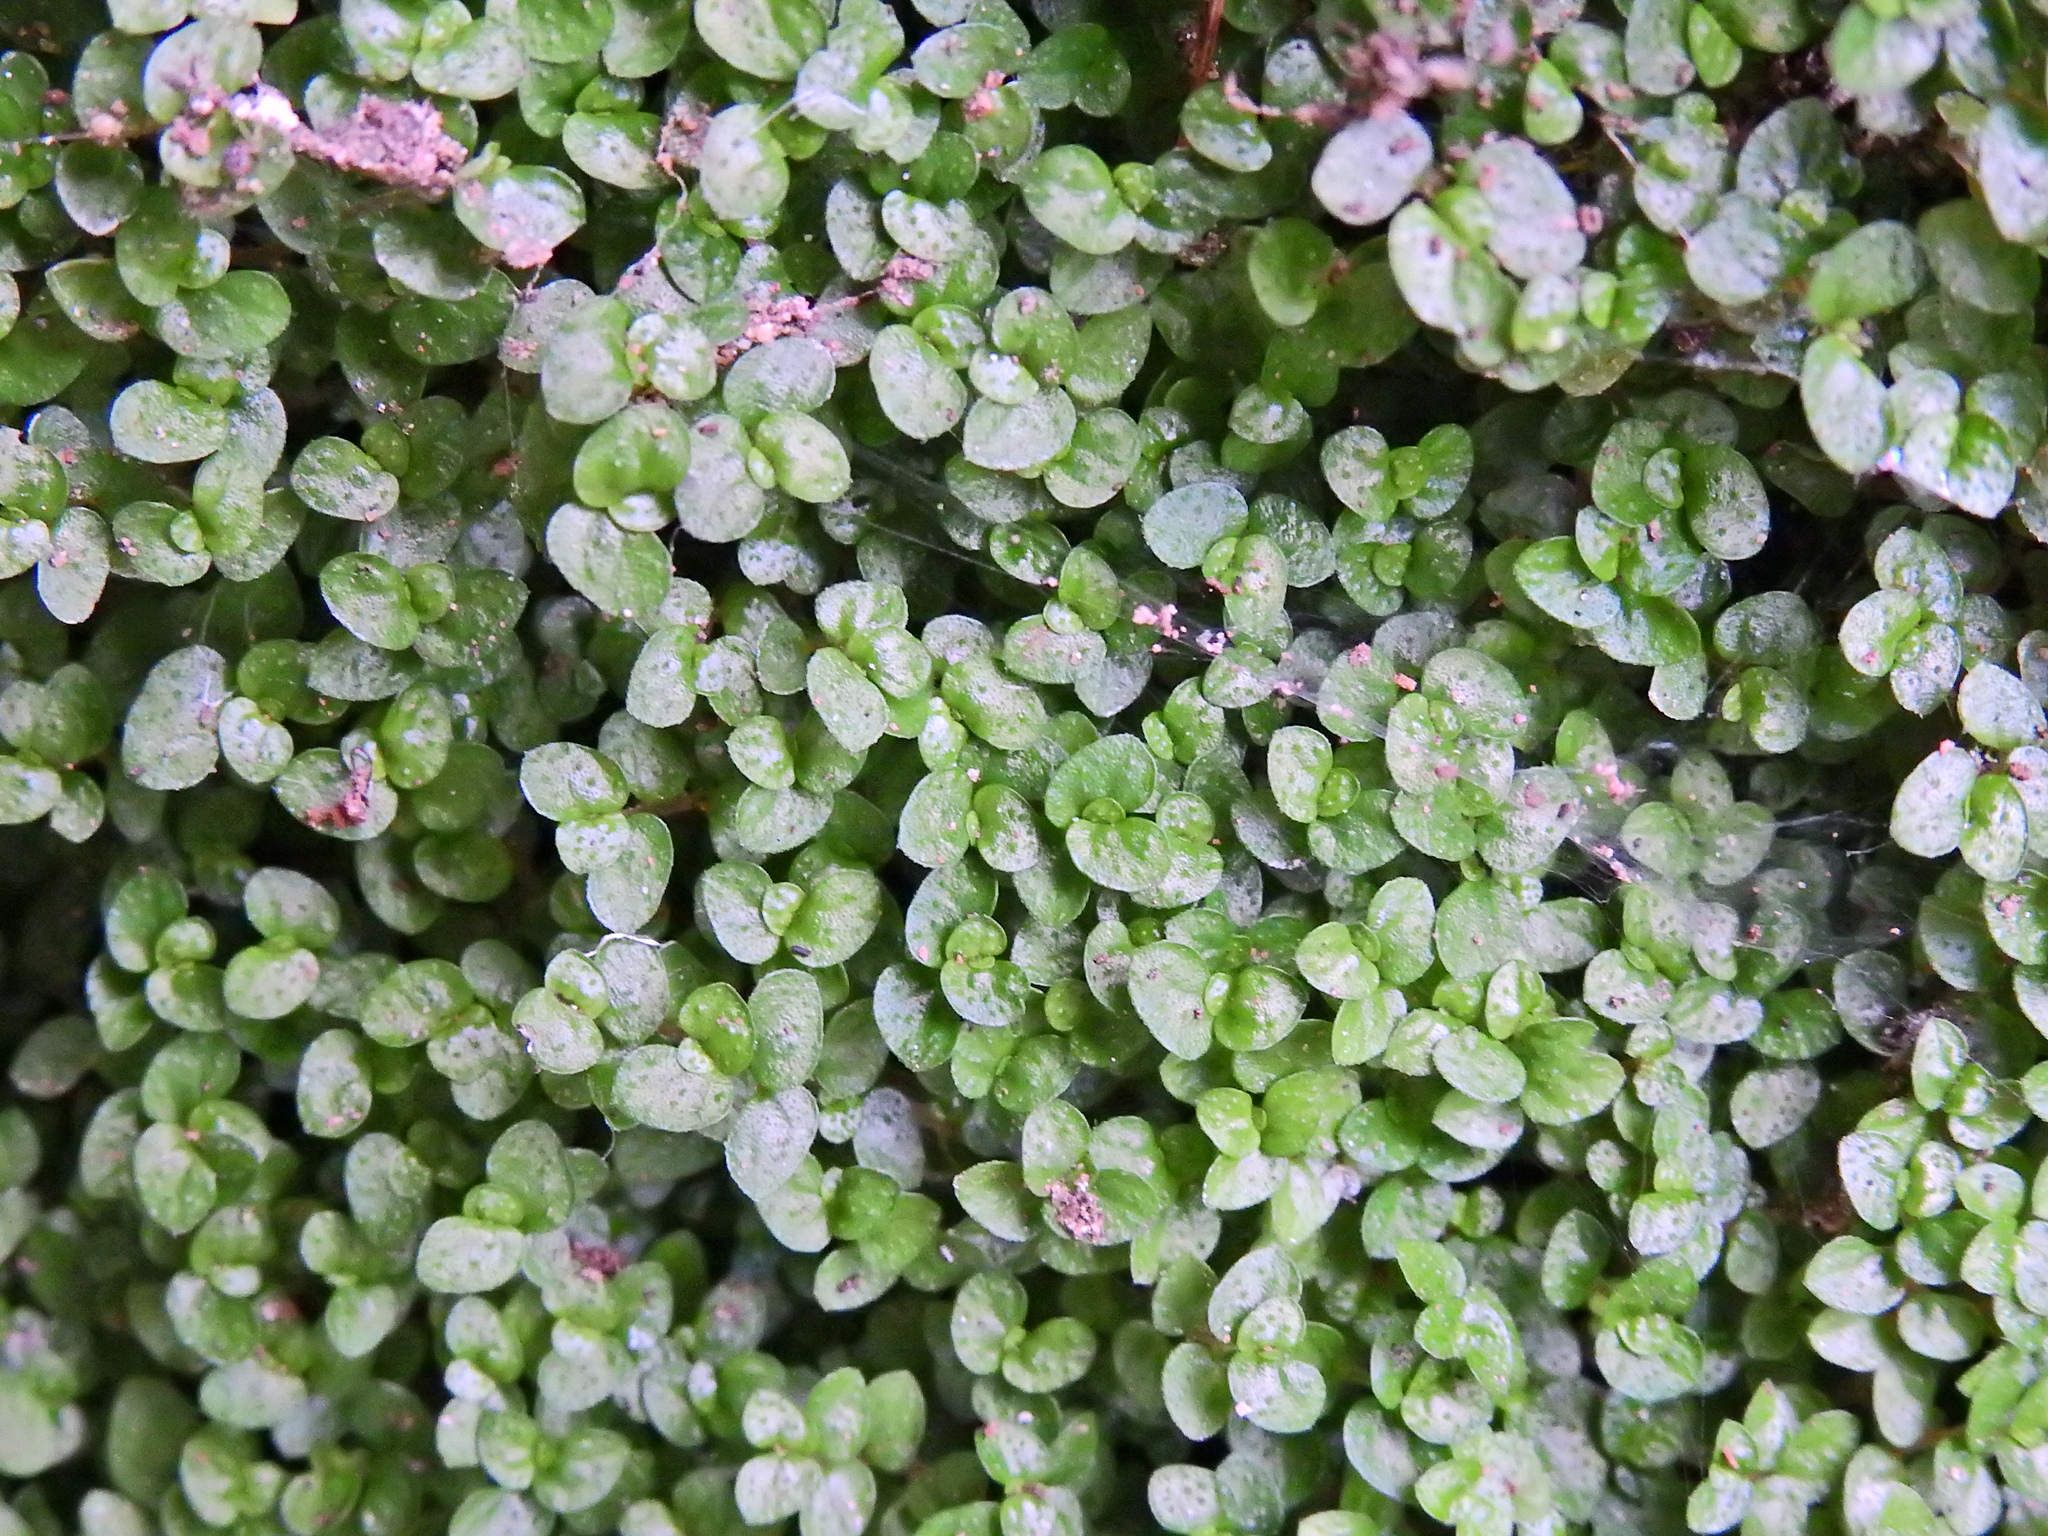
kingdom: Plantae
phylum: Tracheophyta
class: Magnoliopsida
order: Rosales
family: Urticaceae
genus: Soleirolia
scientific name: Soleirolia soleirolii
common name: Mind-your-own-business
